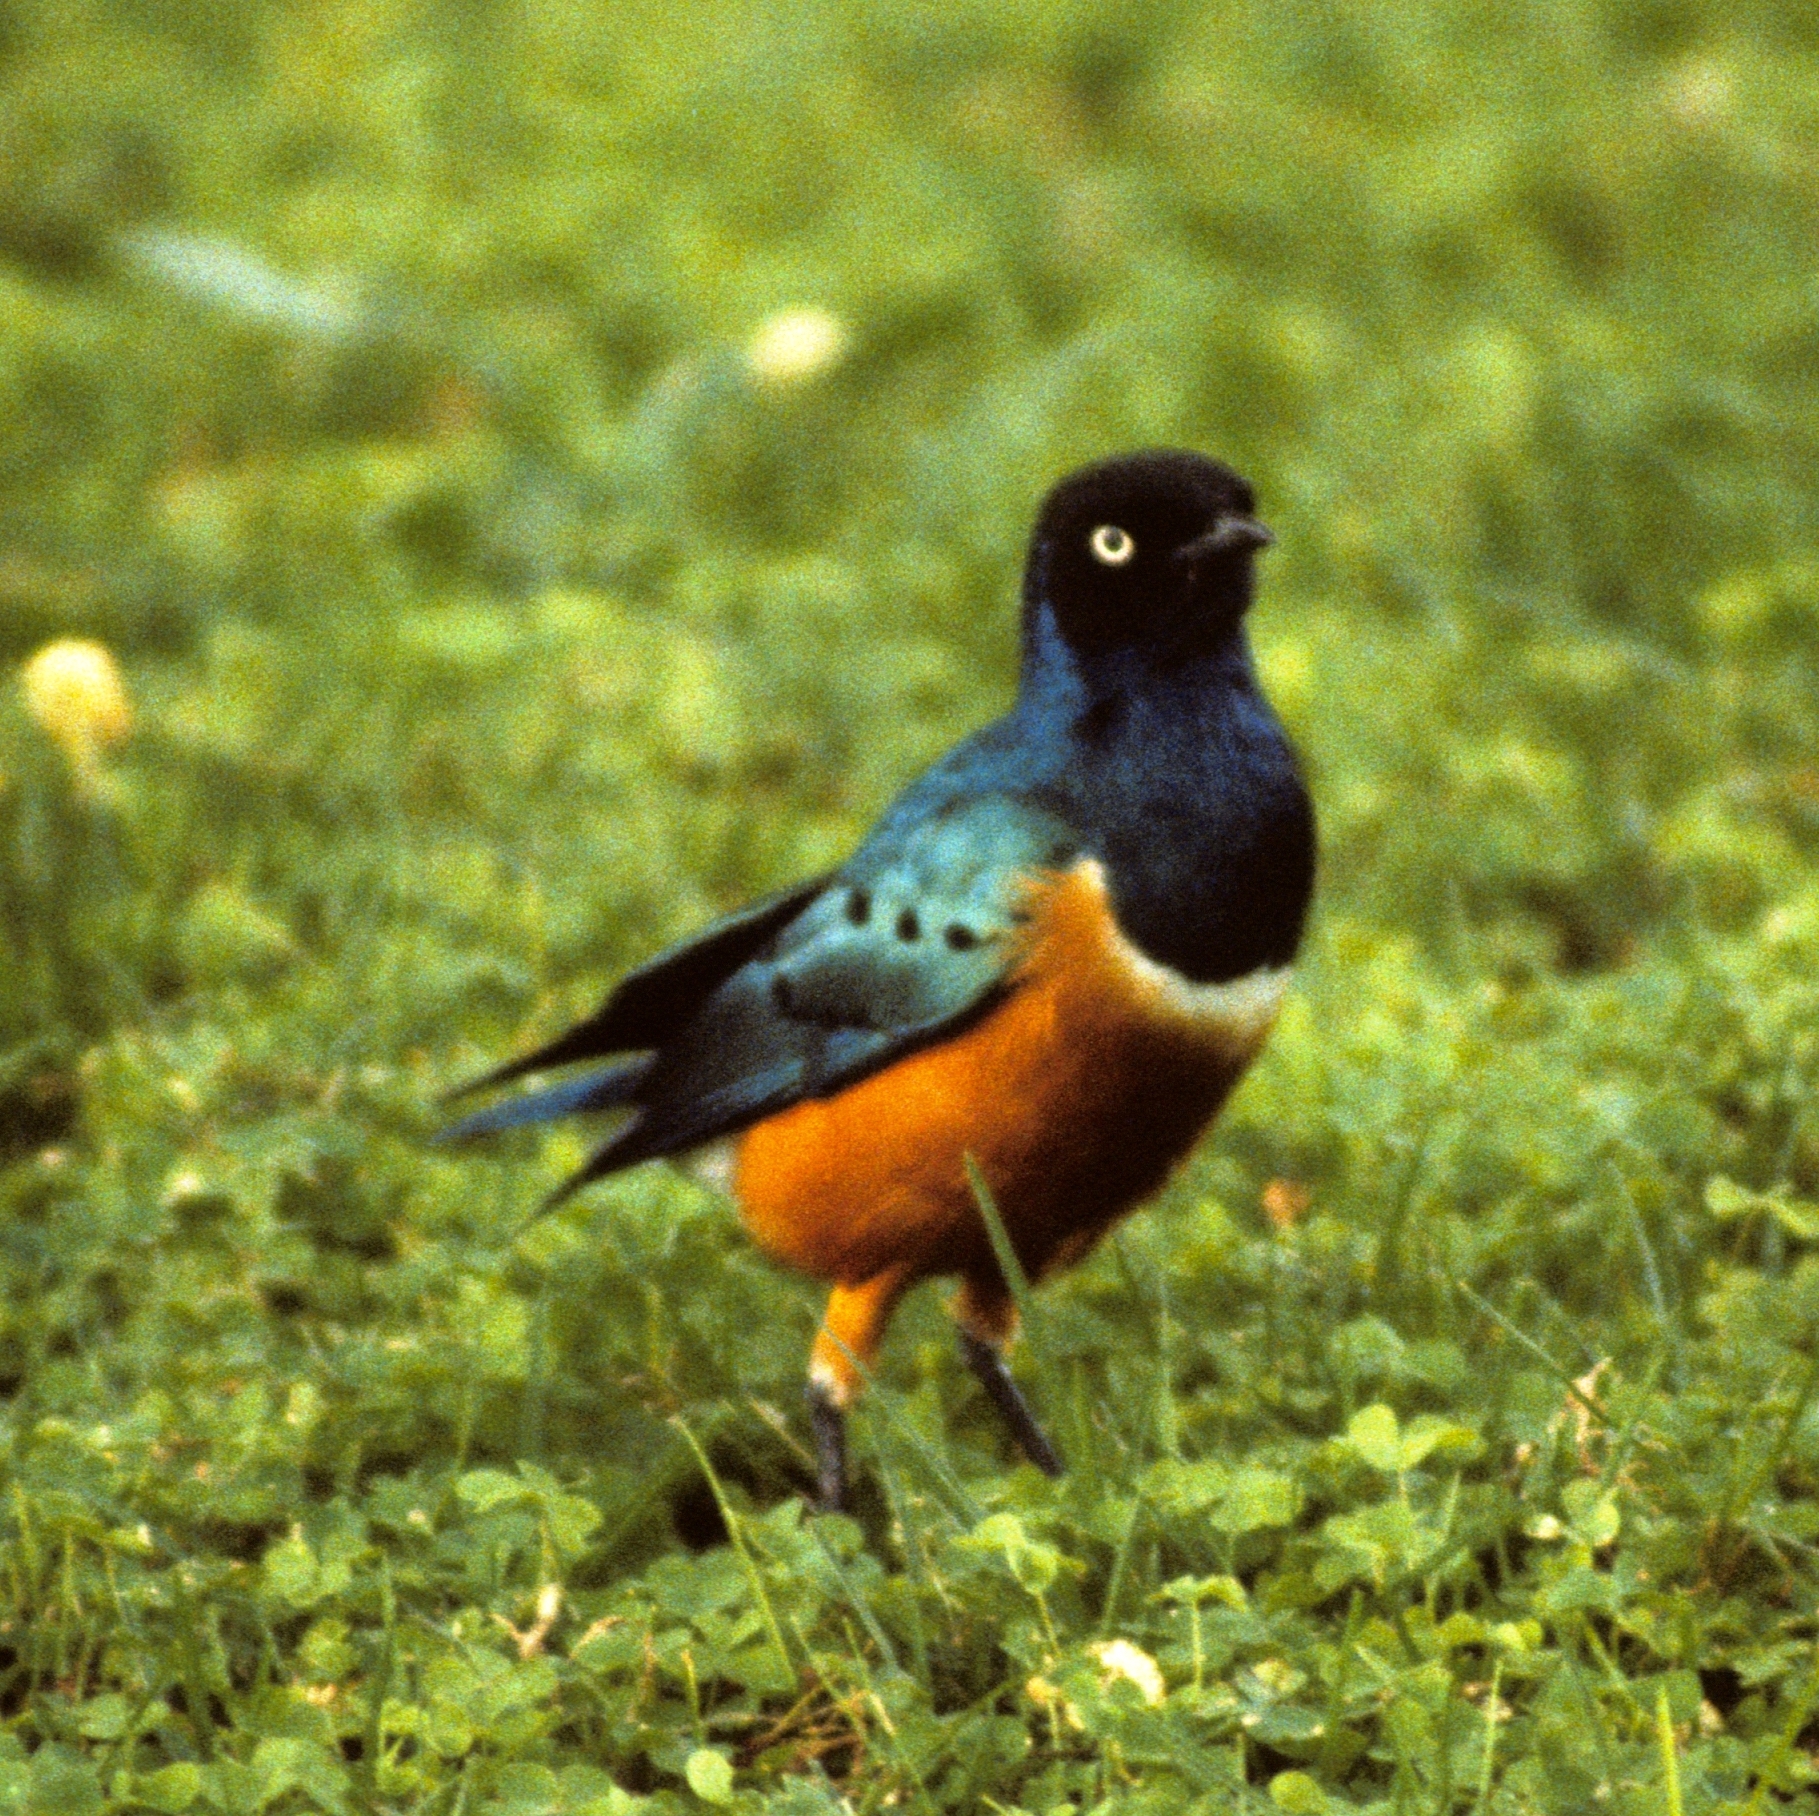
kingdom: Animalia
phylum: Chordata
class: Aves
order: Passeriformes
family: Sturnidae
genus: Lamprotornis
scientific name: Lamprotornis superbus
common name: Superb starling
